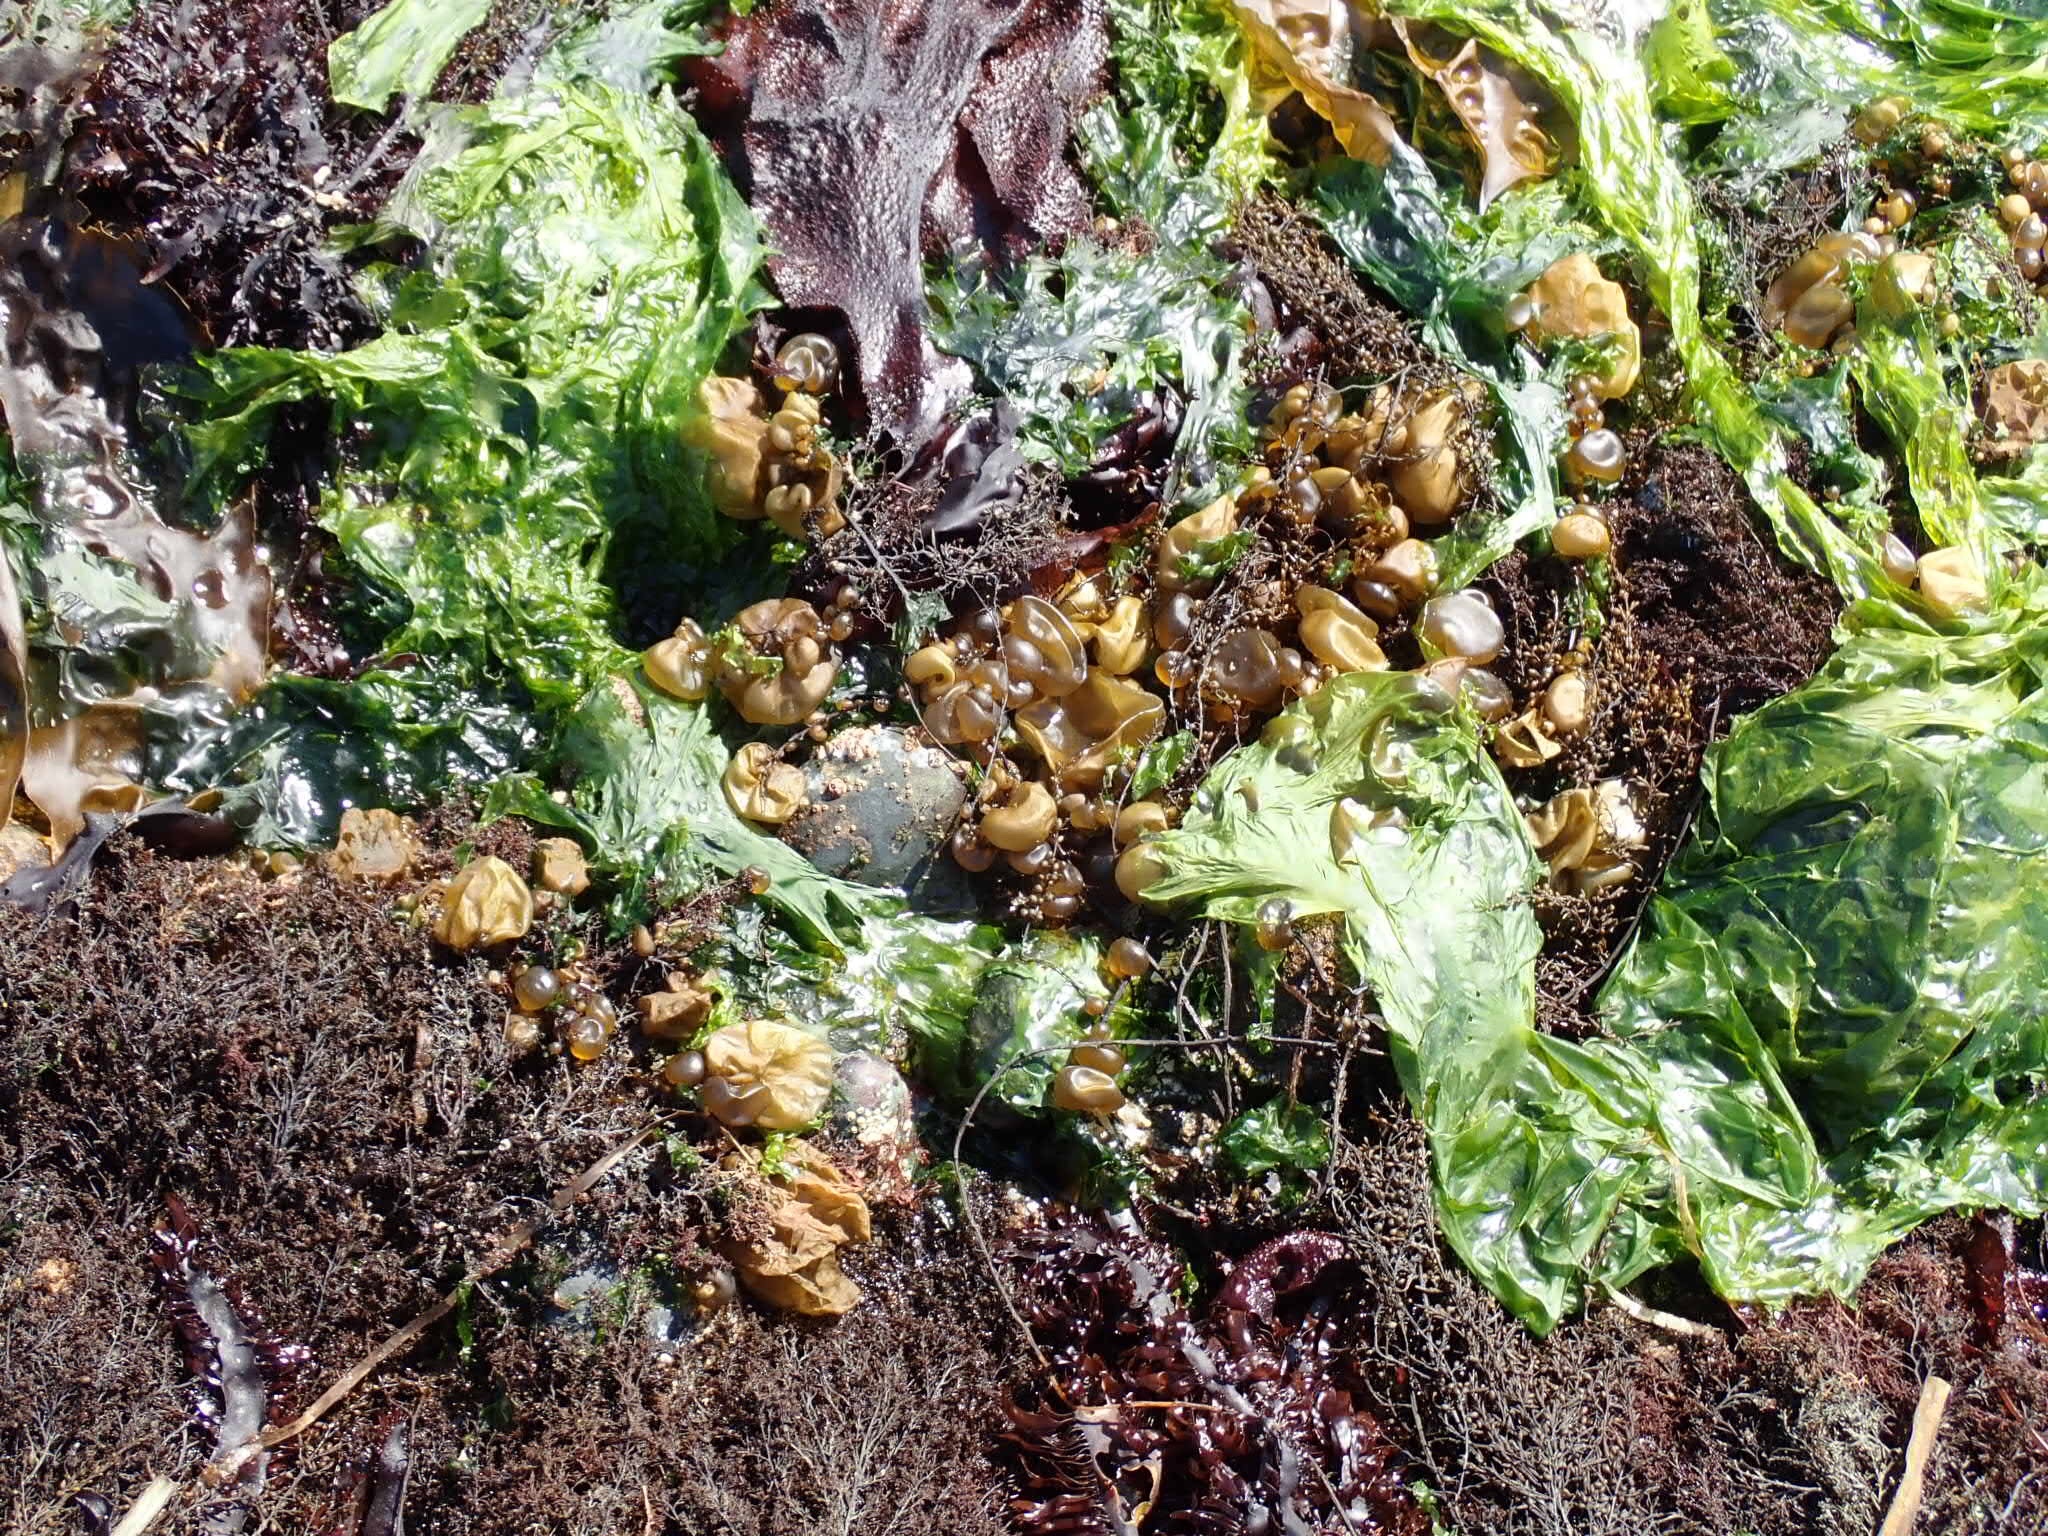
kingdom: Chromista
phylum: Ochrophyta
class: Phaeophyceae
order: Scytosiphonales
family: Scytosiphonaceae
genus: Colpomenia
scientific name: Colpomenia peregrina
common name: Oyster thief
